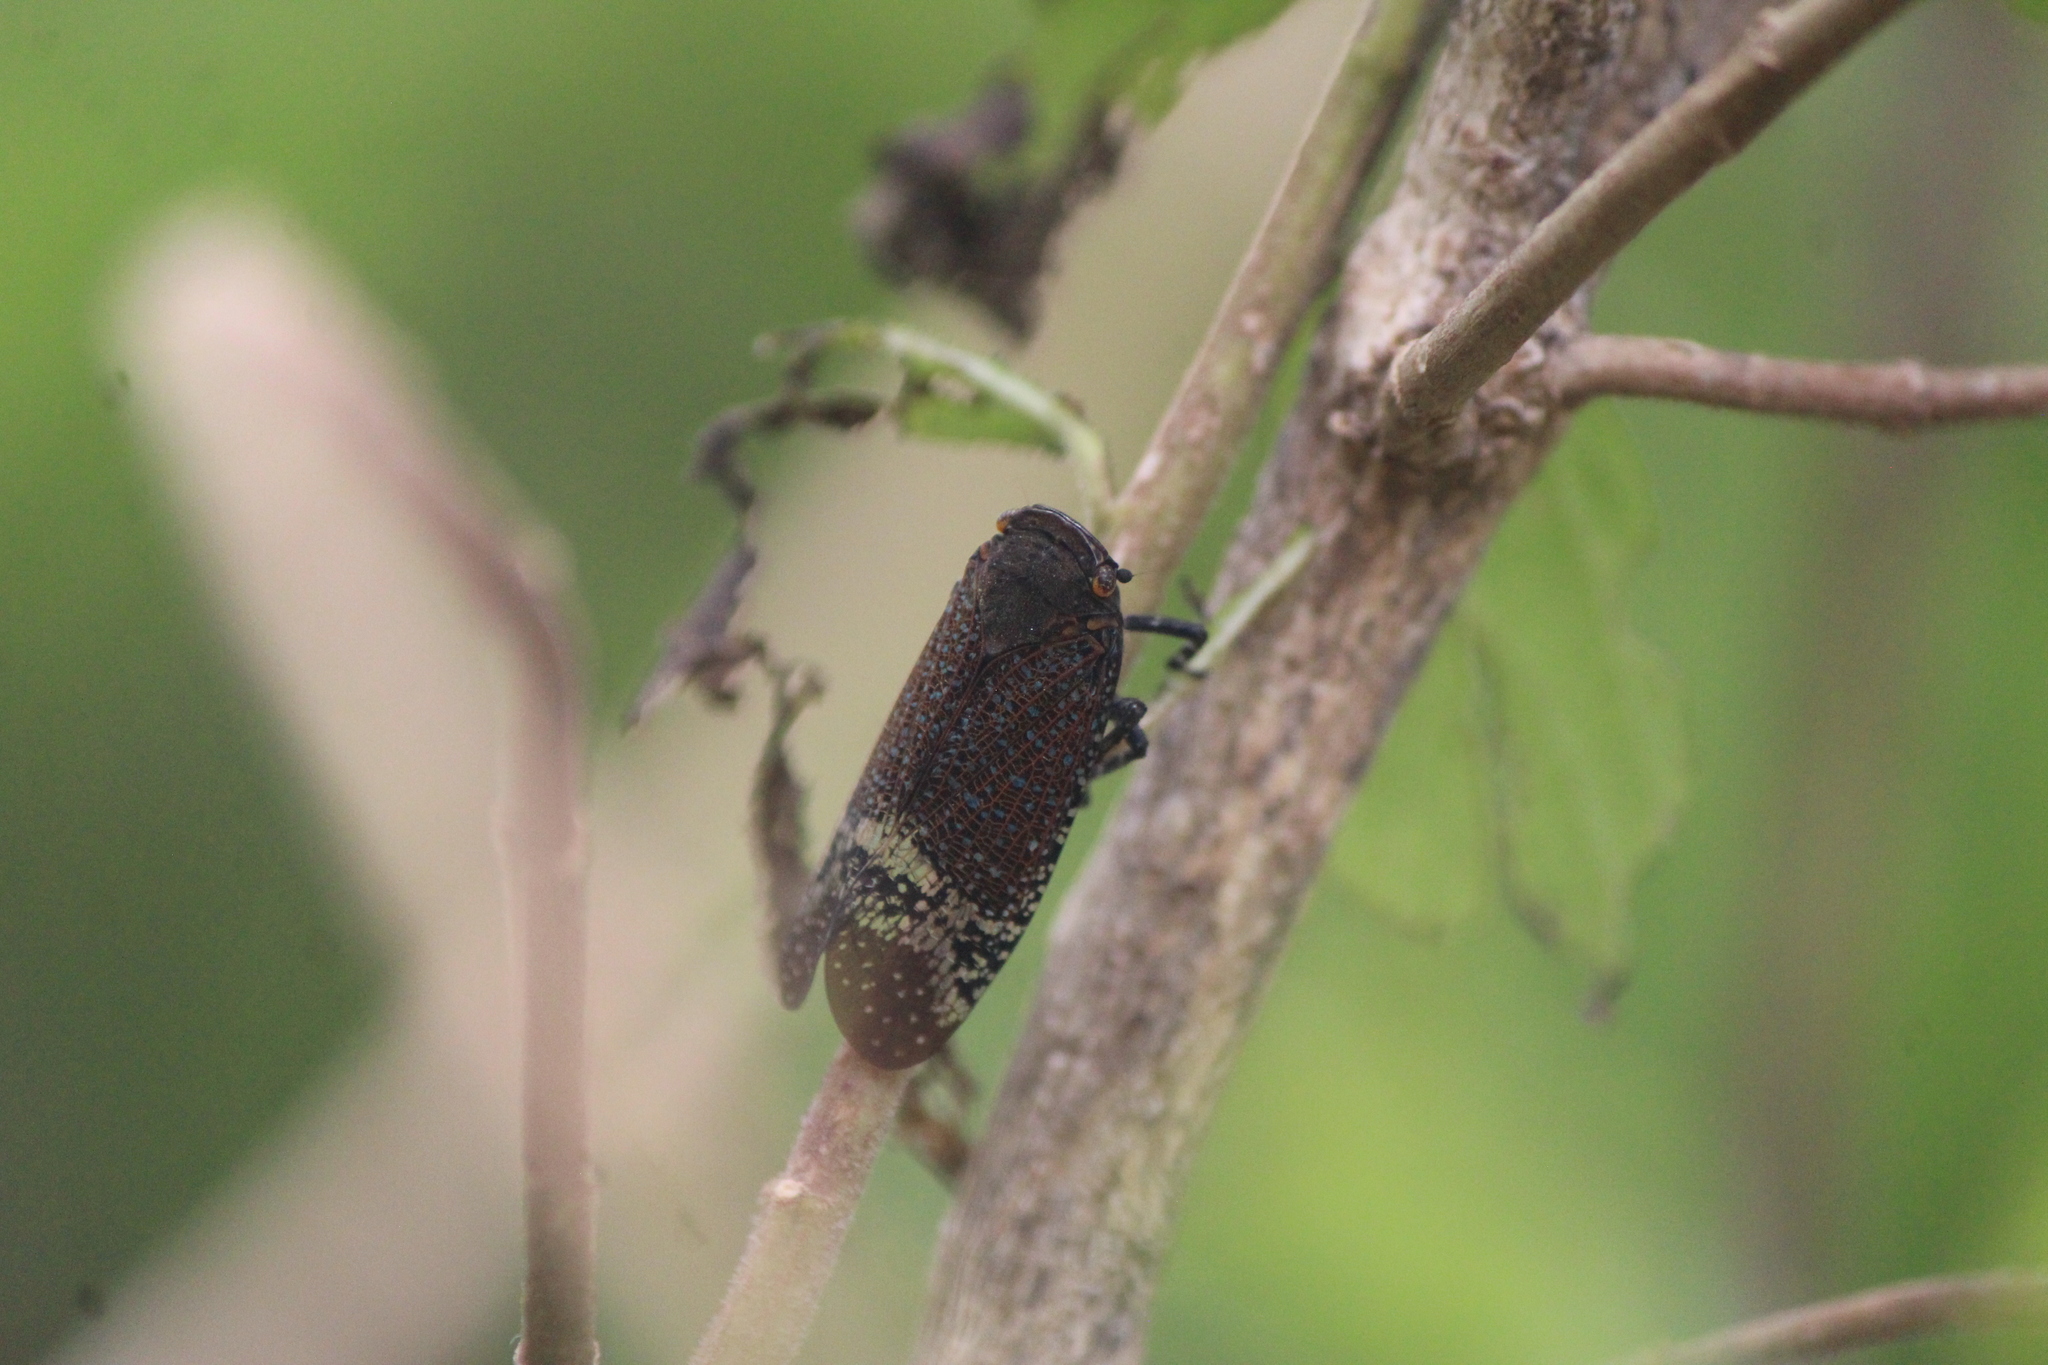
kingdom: Animalia
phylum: Arthropoda
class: Insecta
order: Hemiptera
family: Fulgoridae
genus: Alaruasa
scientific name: Alaruasa lepida
